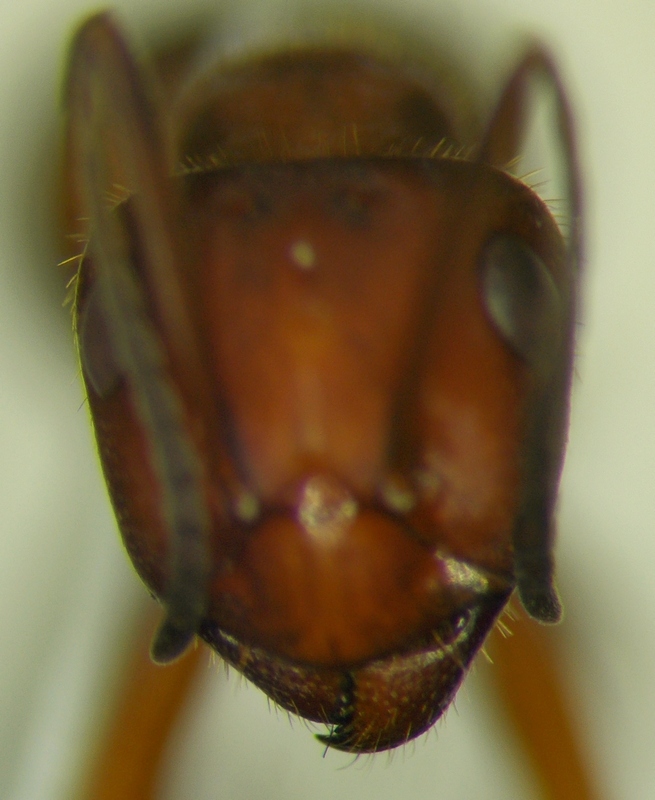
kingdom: Animalia
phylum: Arthropoda
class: Insecta
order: Hymenoptera
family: Formicidae
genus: Formica
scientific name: Formica truncorum
